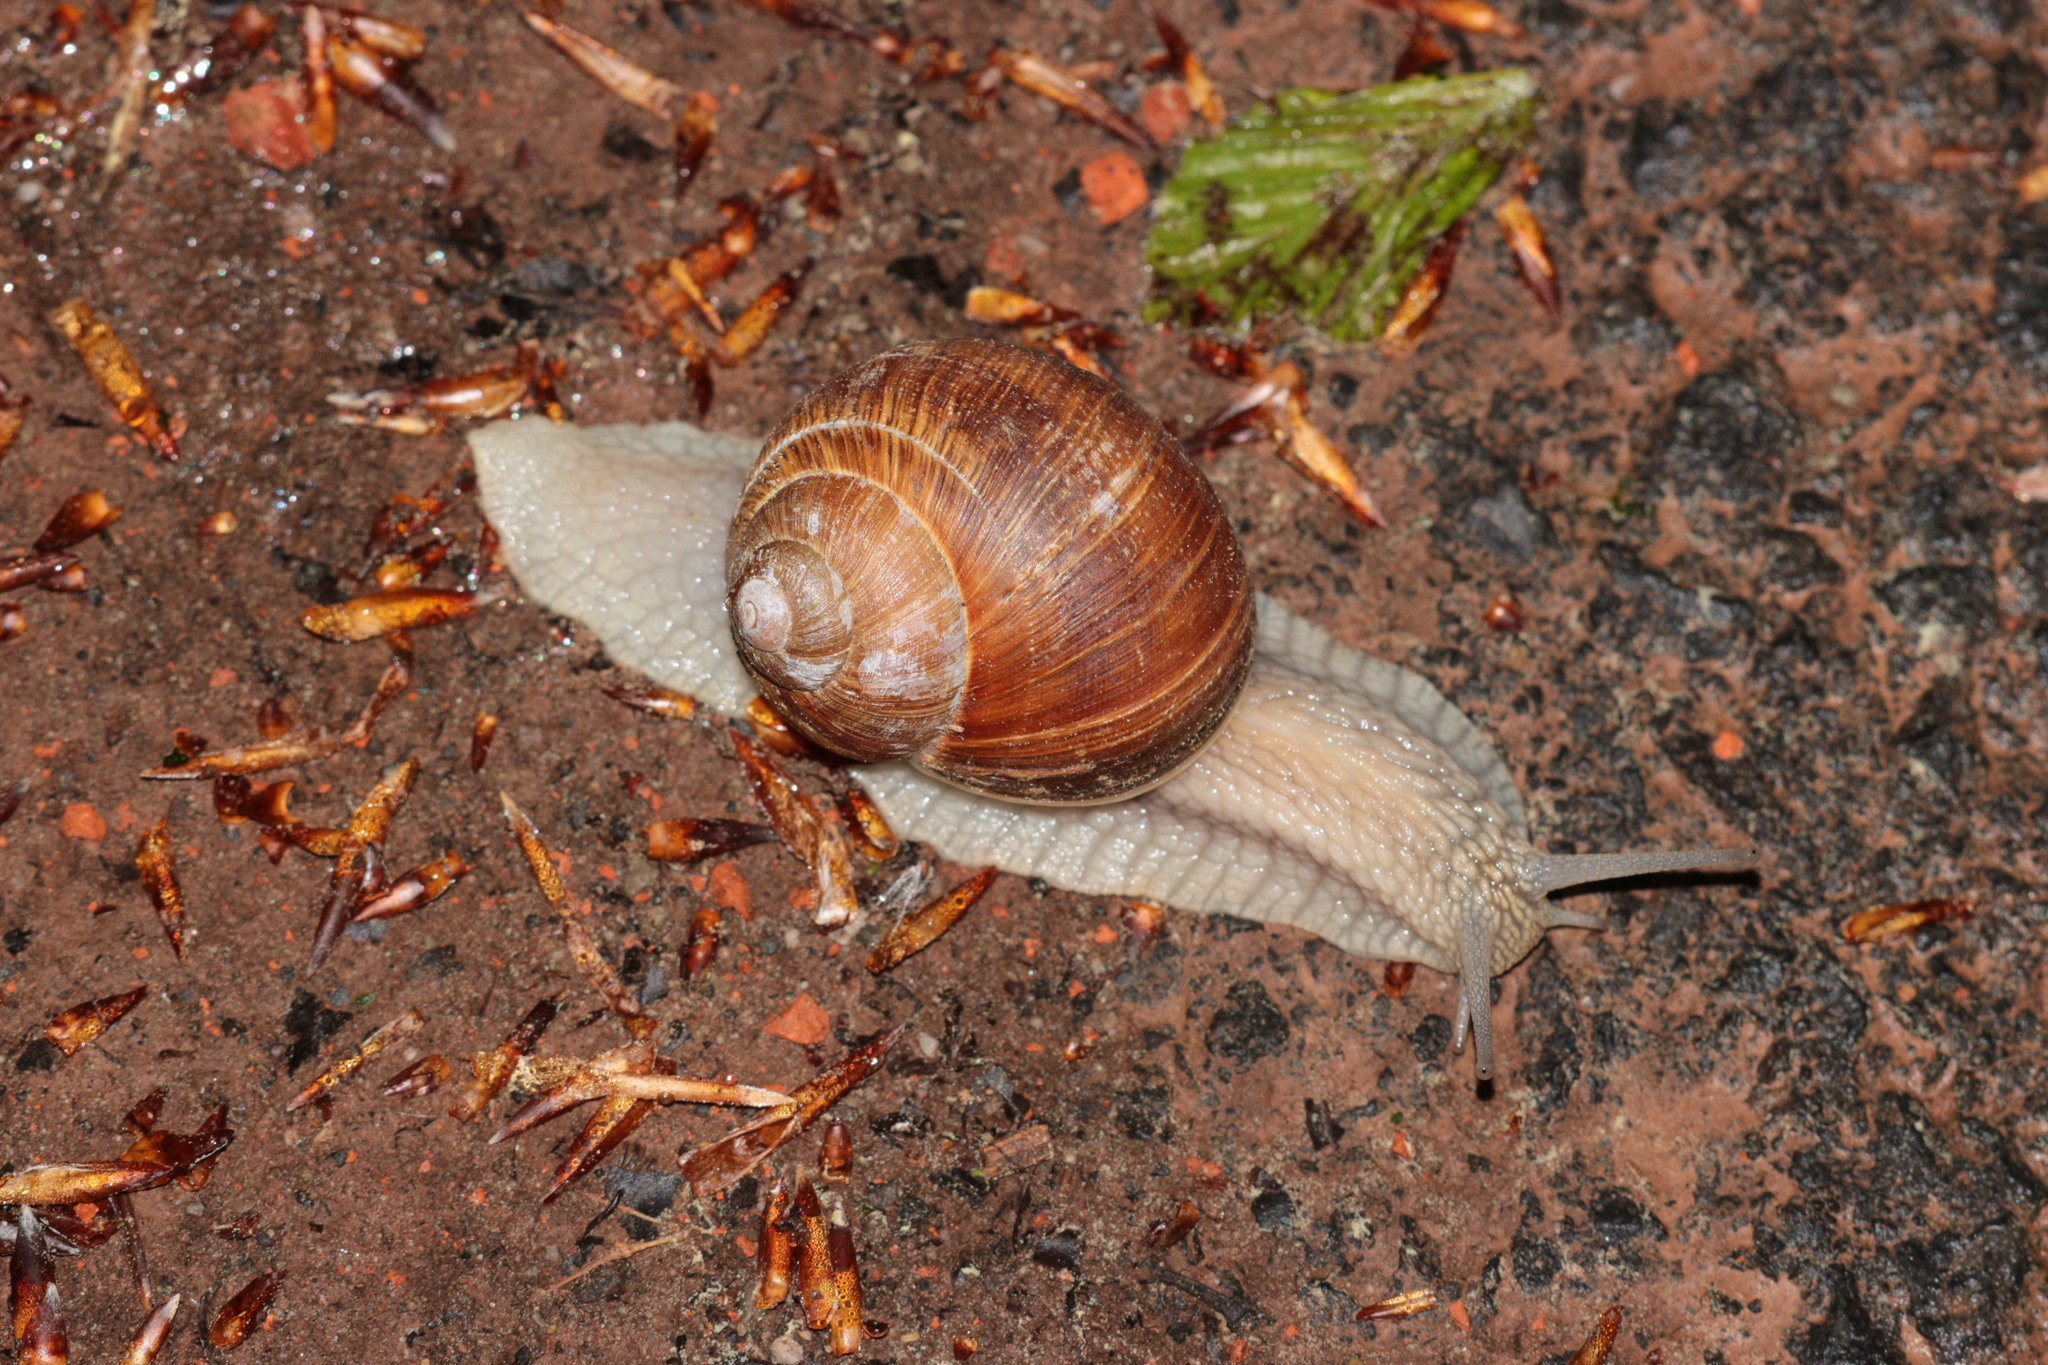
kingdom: Animalia
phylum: Mollusca
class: Gastropoda
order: Stylommatophora
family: Helicidae
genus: Helix
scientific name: Helix pomatia
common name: Roman snail
